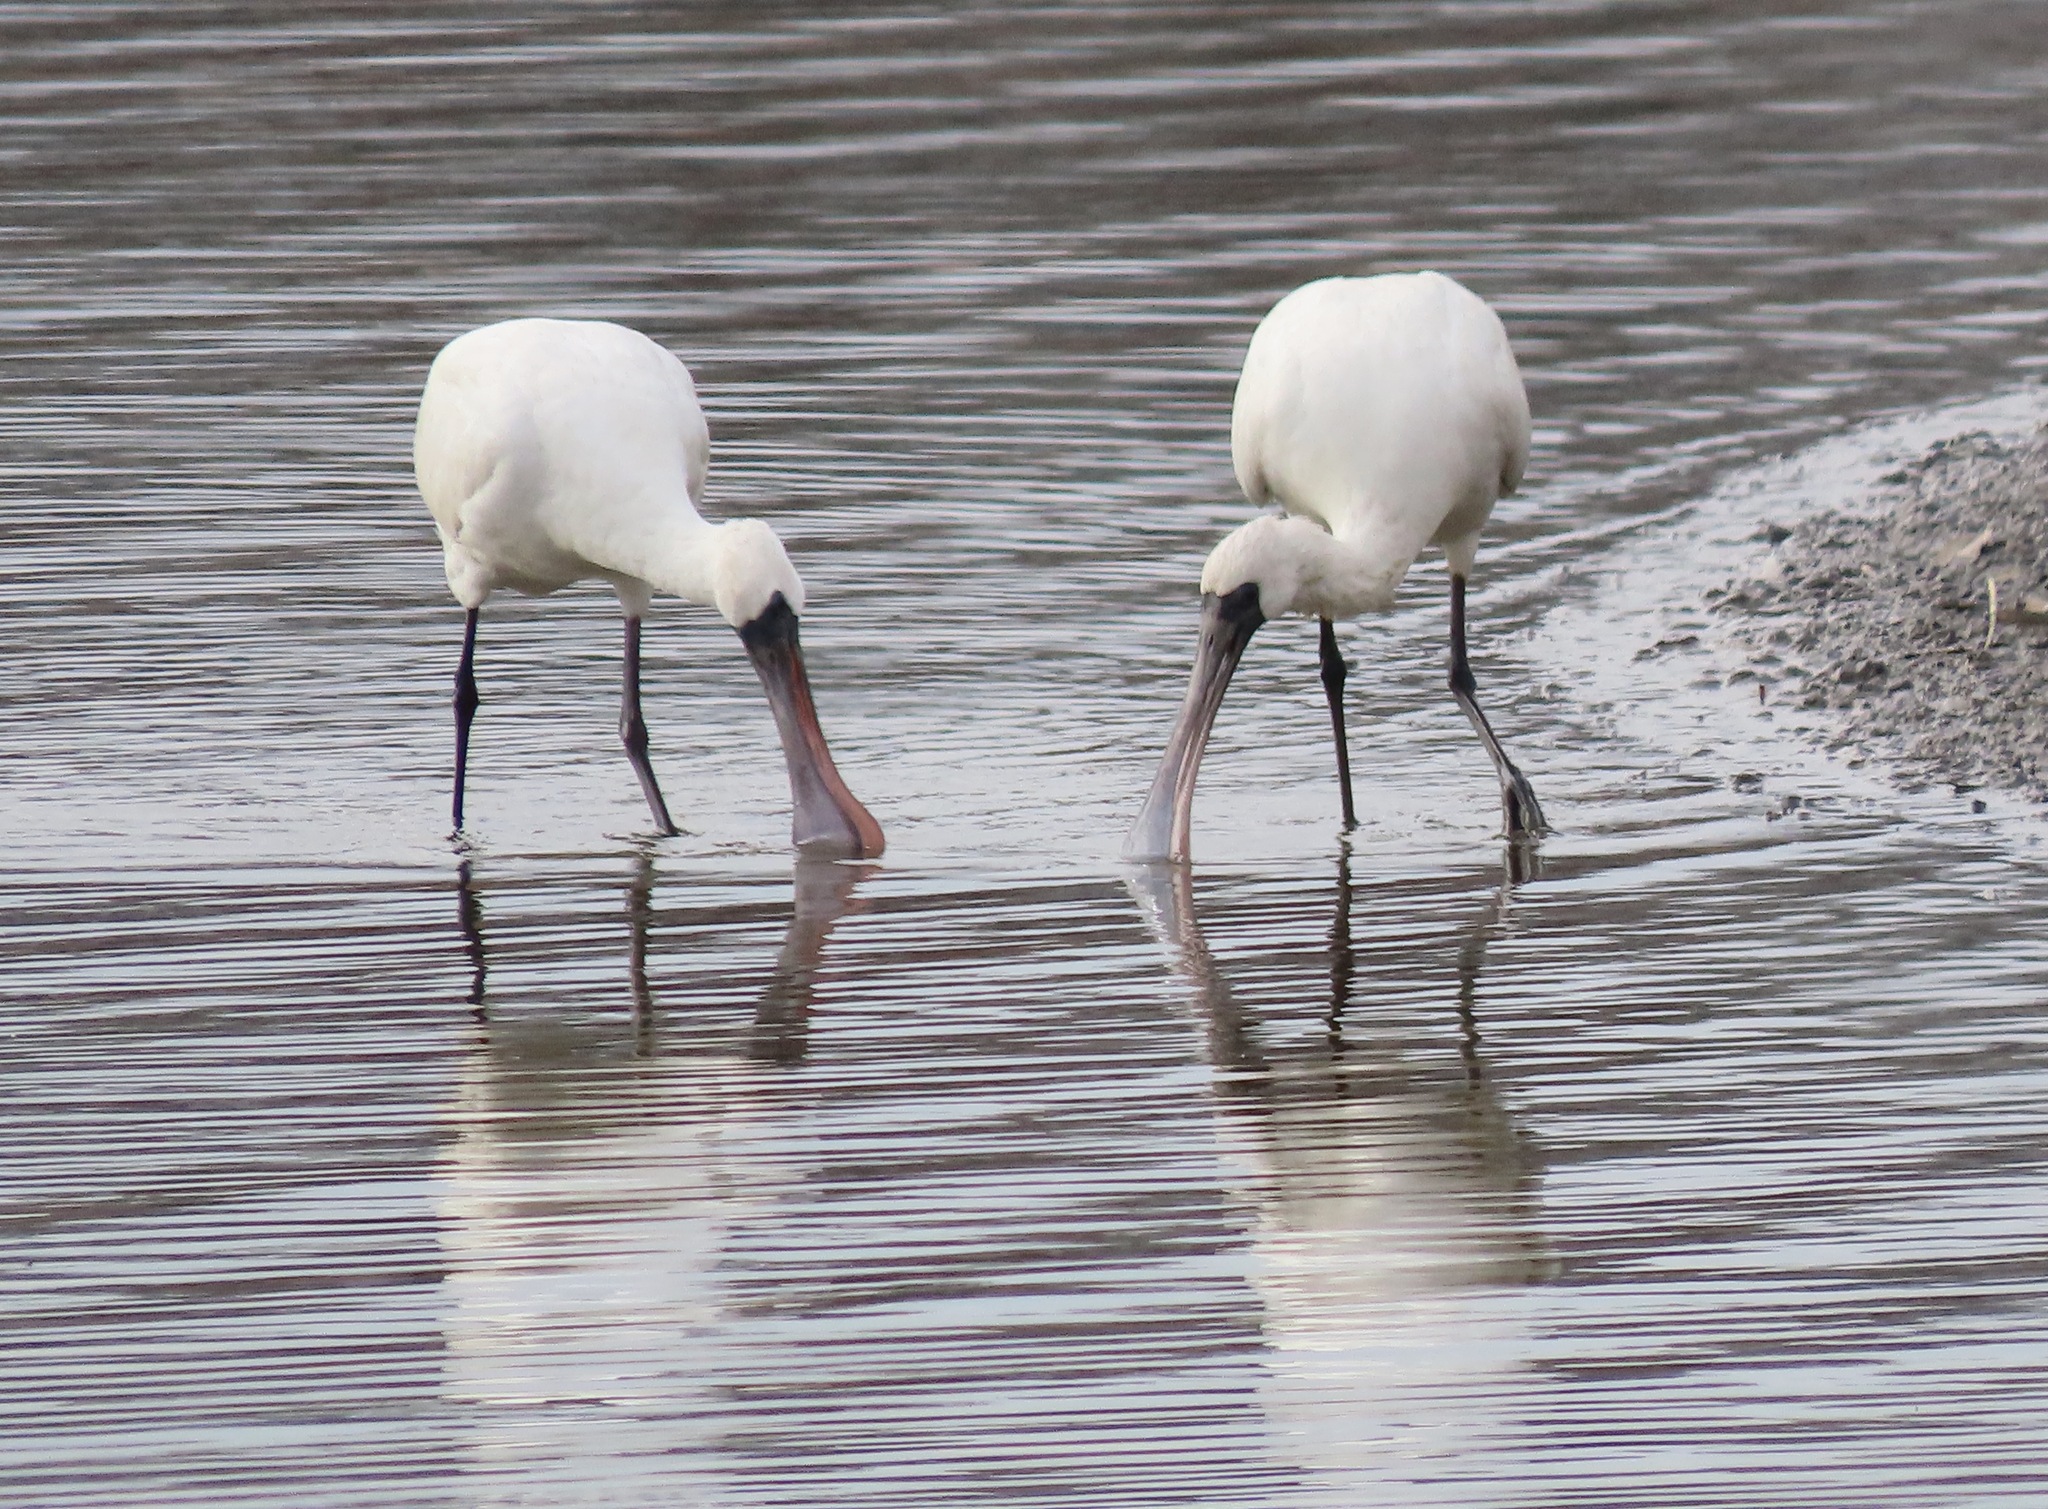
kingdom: Animalia
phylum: Chordata
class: Aves
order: Pelecaniformes
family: Threskiornithidae
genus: Platalea
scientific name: Platalea minor
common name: Black-faced spoonbill
